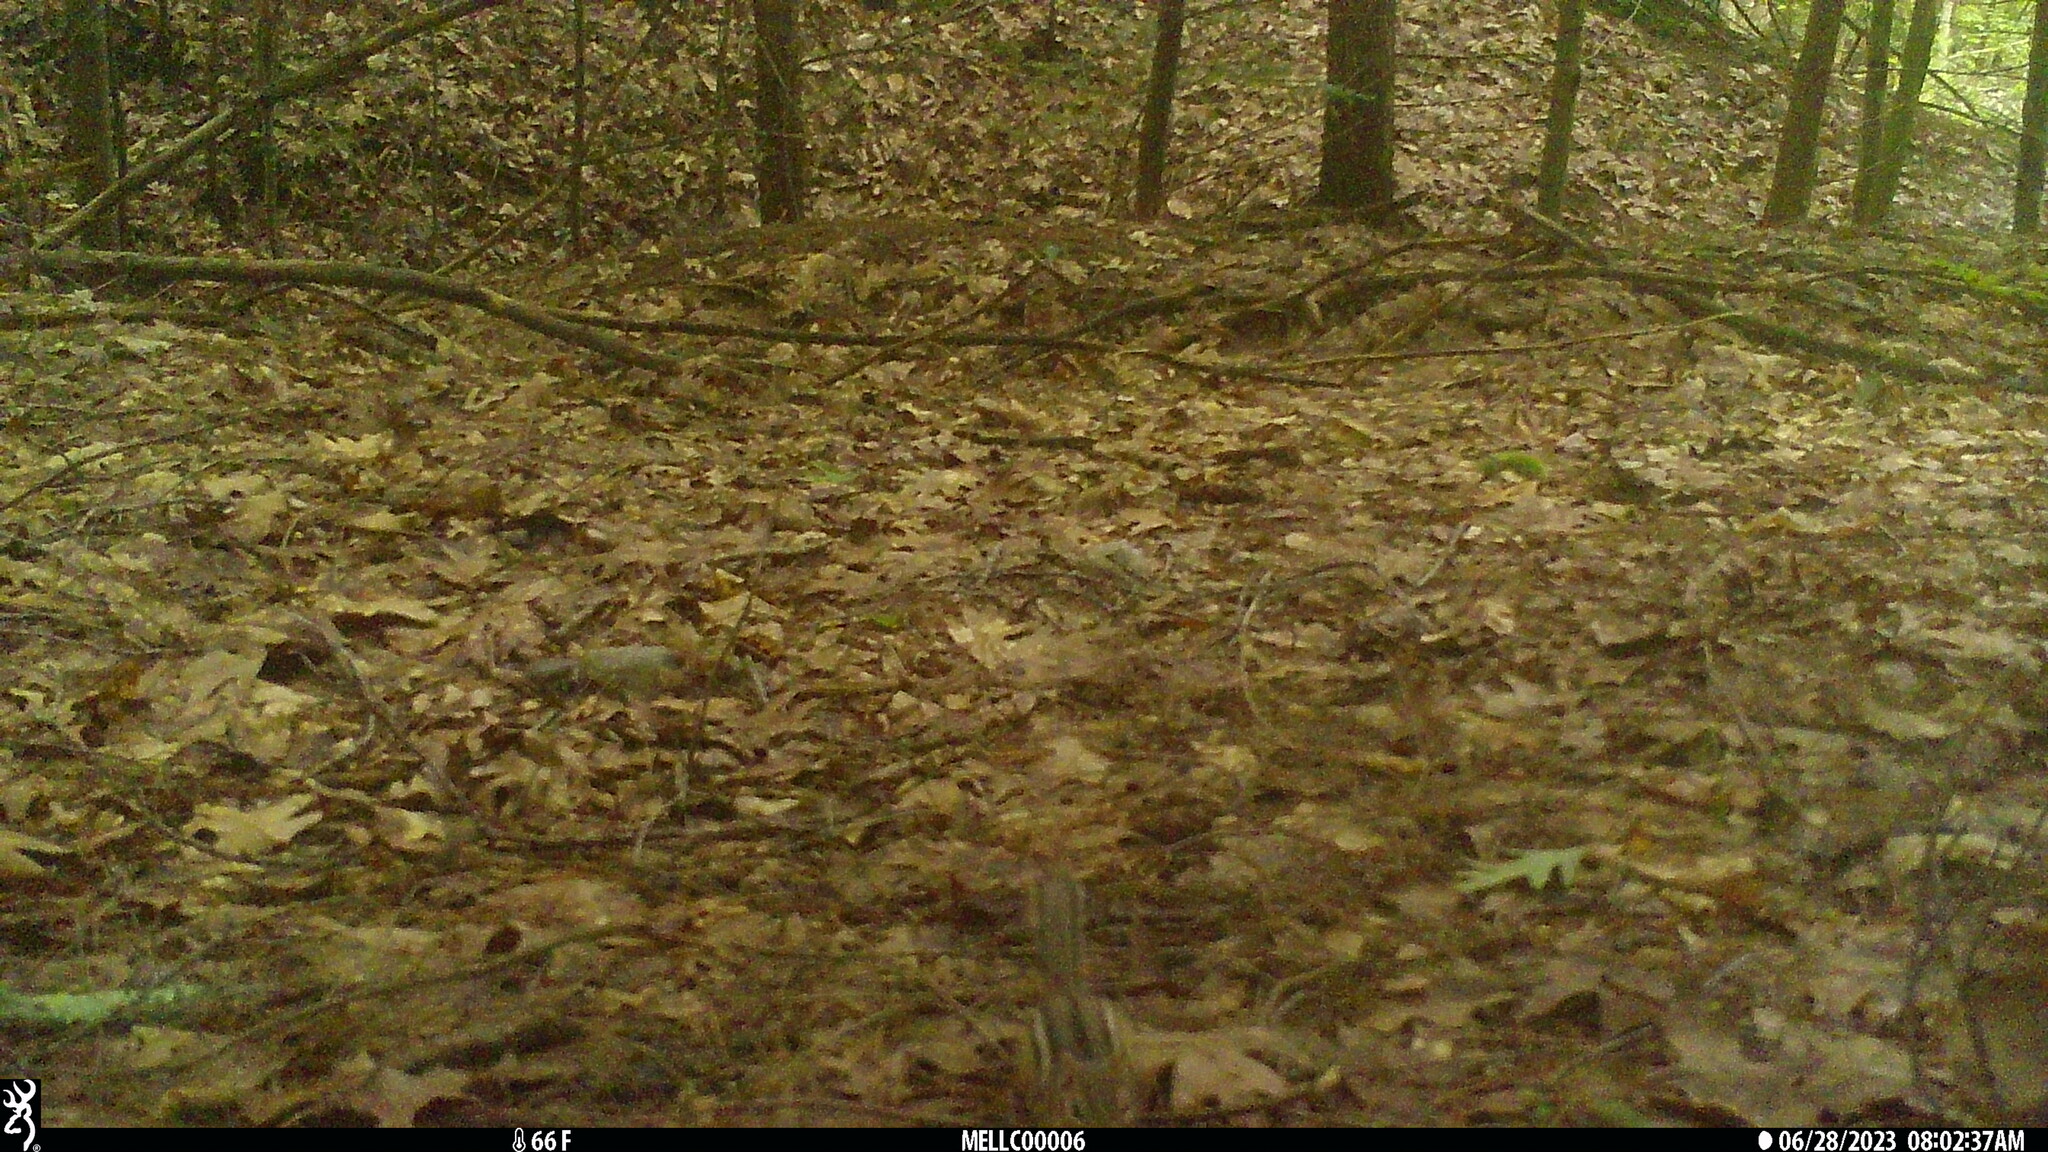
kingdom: Animalia
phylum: Chordata
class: Mammalia
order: Rodentia
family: Sciuridae
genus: Tamias
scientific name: Tamias striatus
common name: Eastern chipmunk
